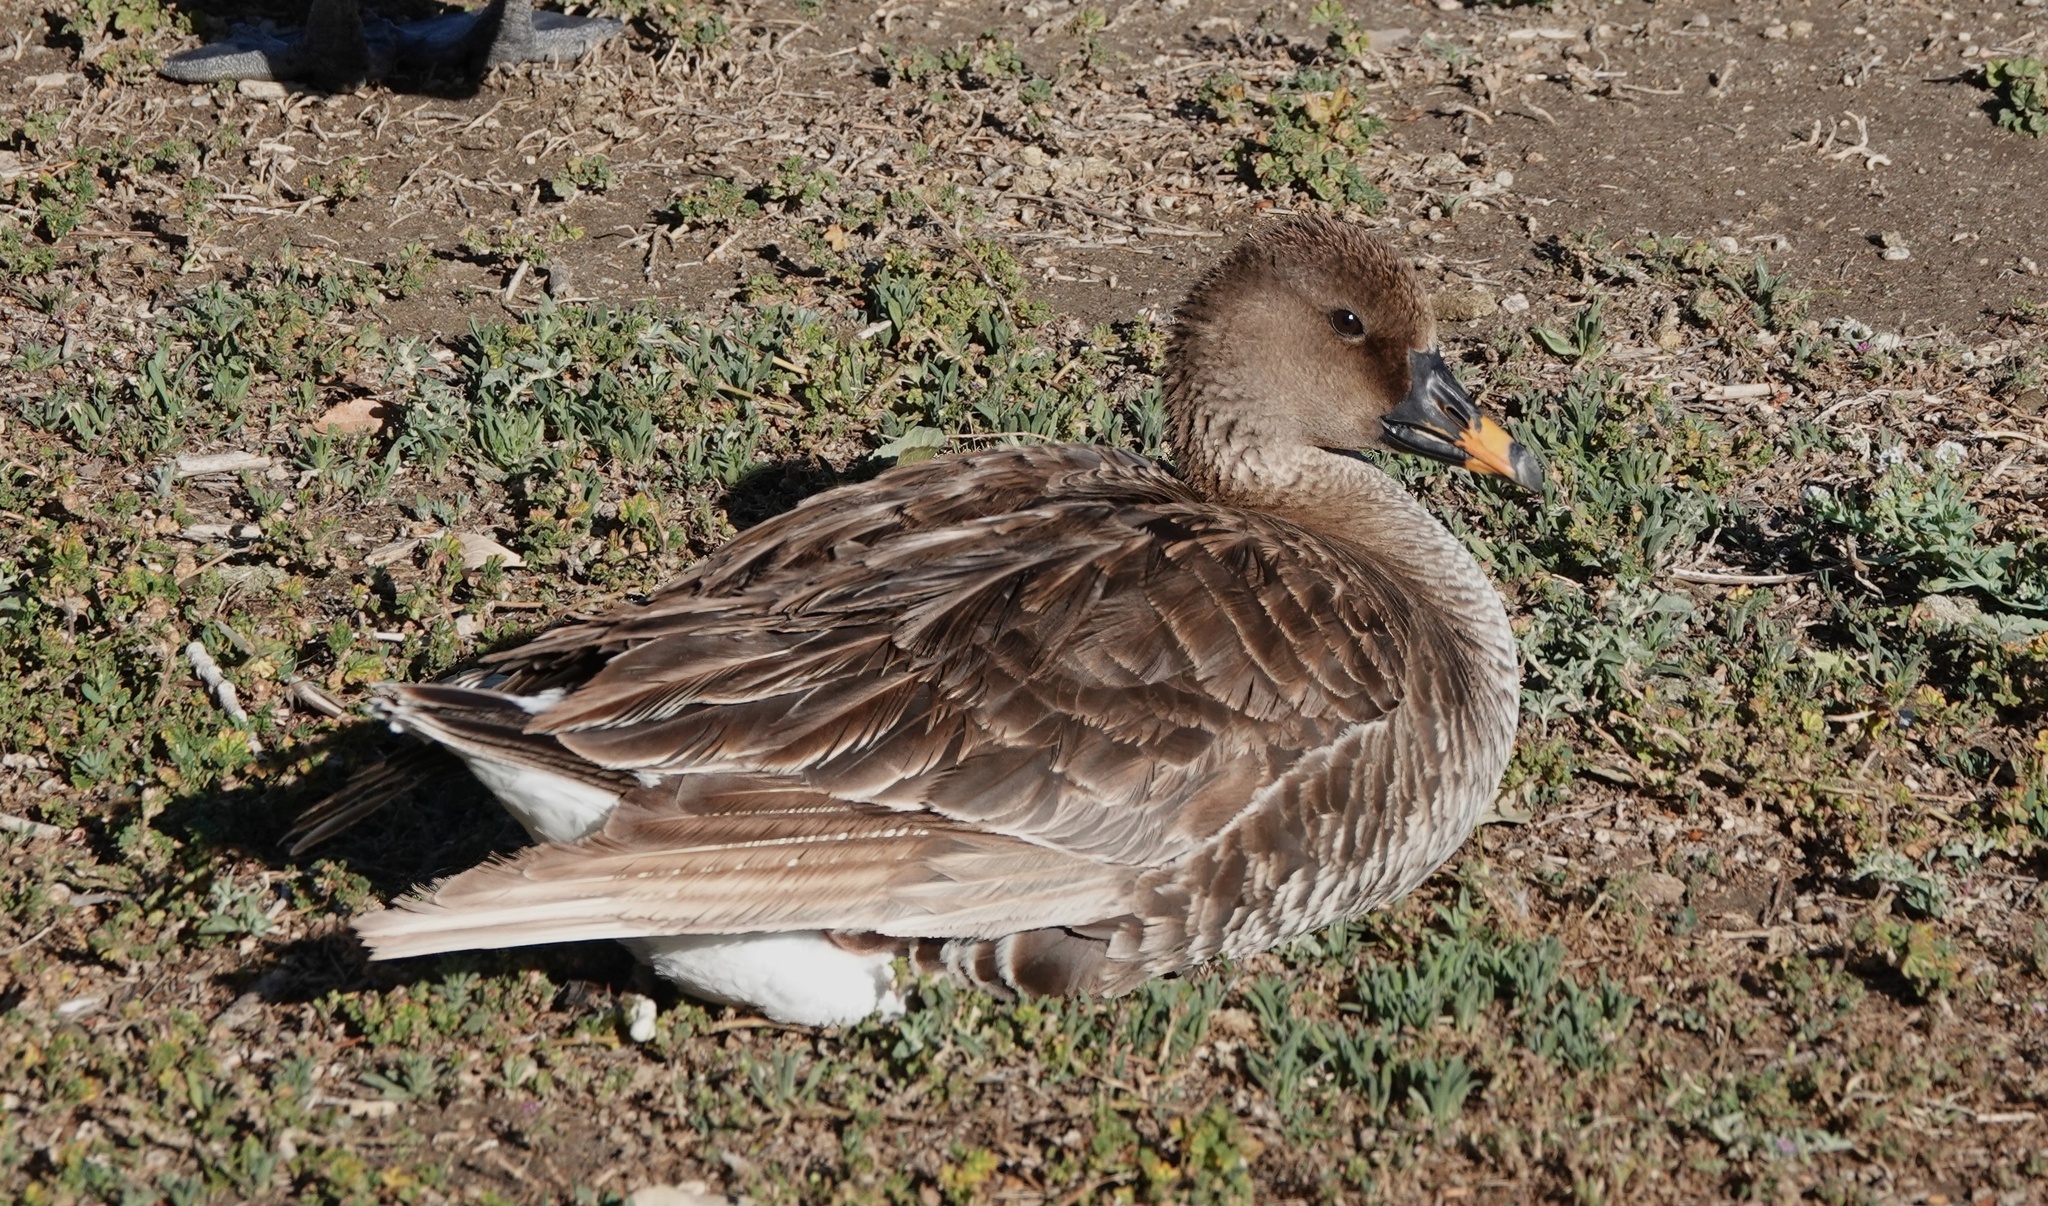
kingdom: Animalia
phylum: Chordata
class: Aves
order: Anseriformes
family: Anatidae
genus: Anser
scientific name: Anser serrirostris
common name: Tundra bean goose
